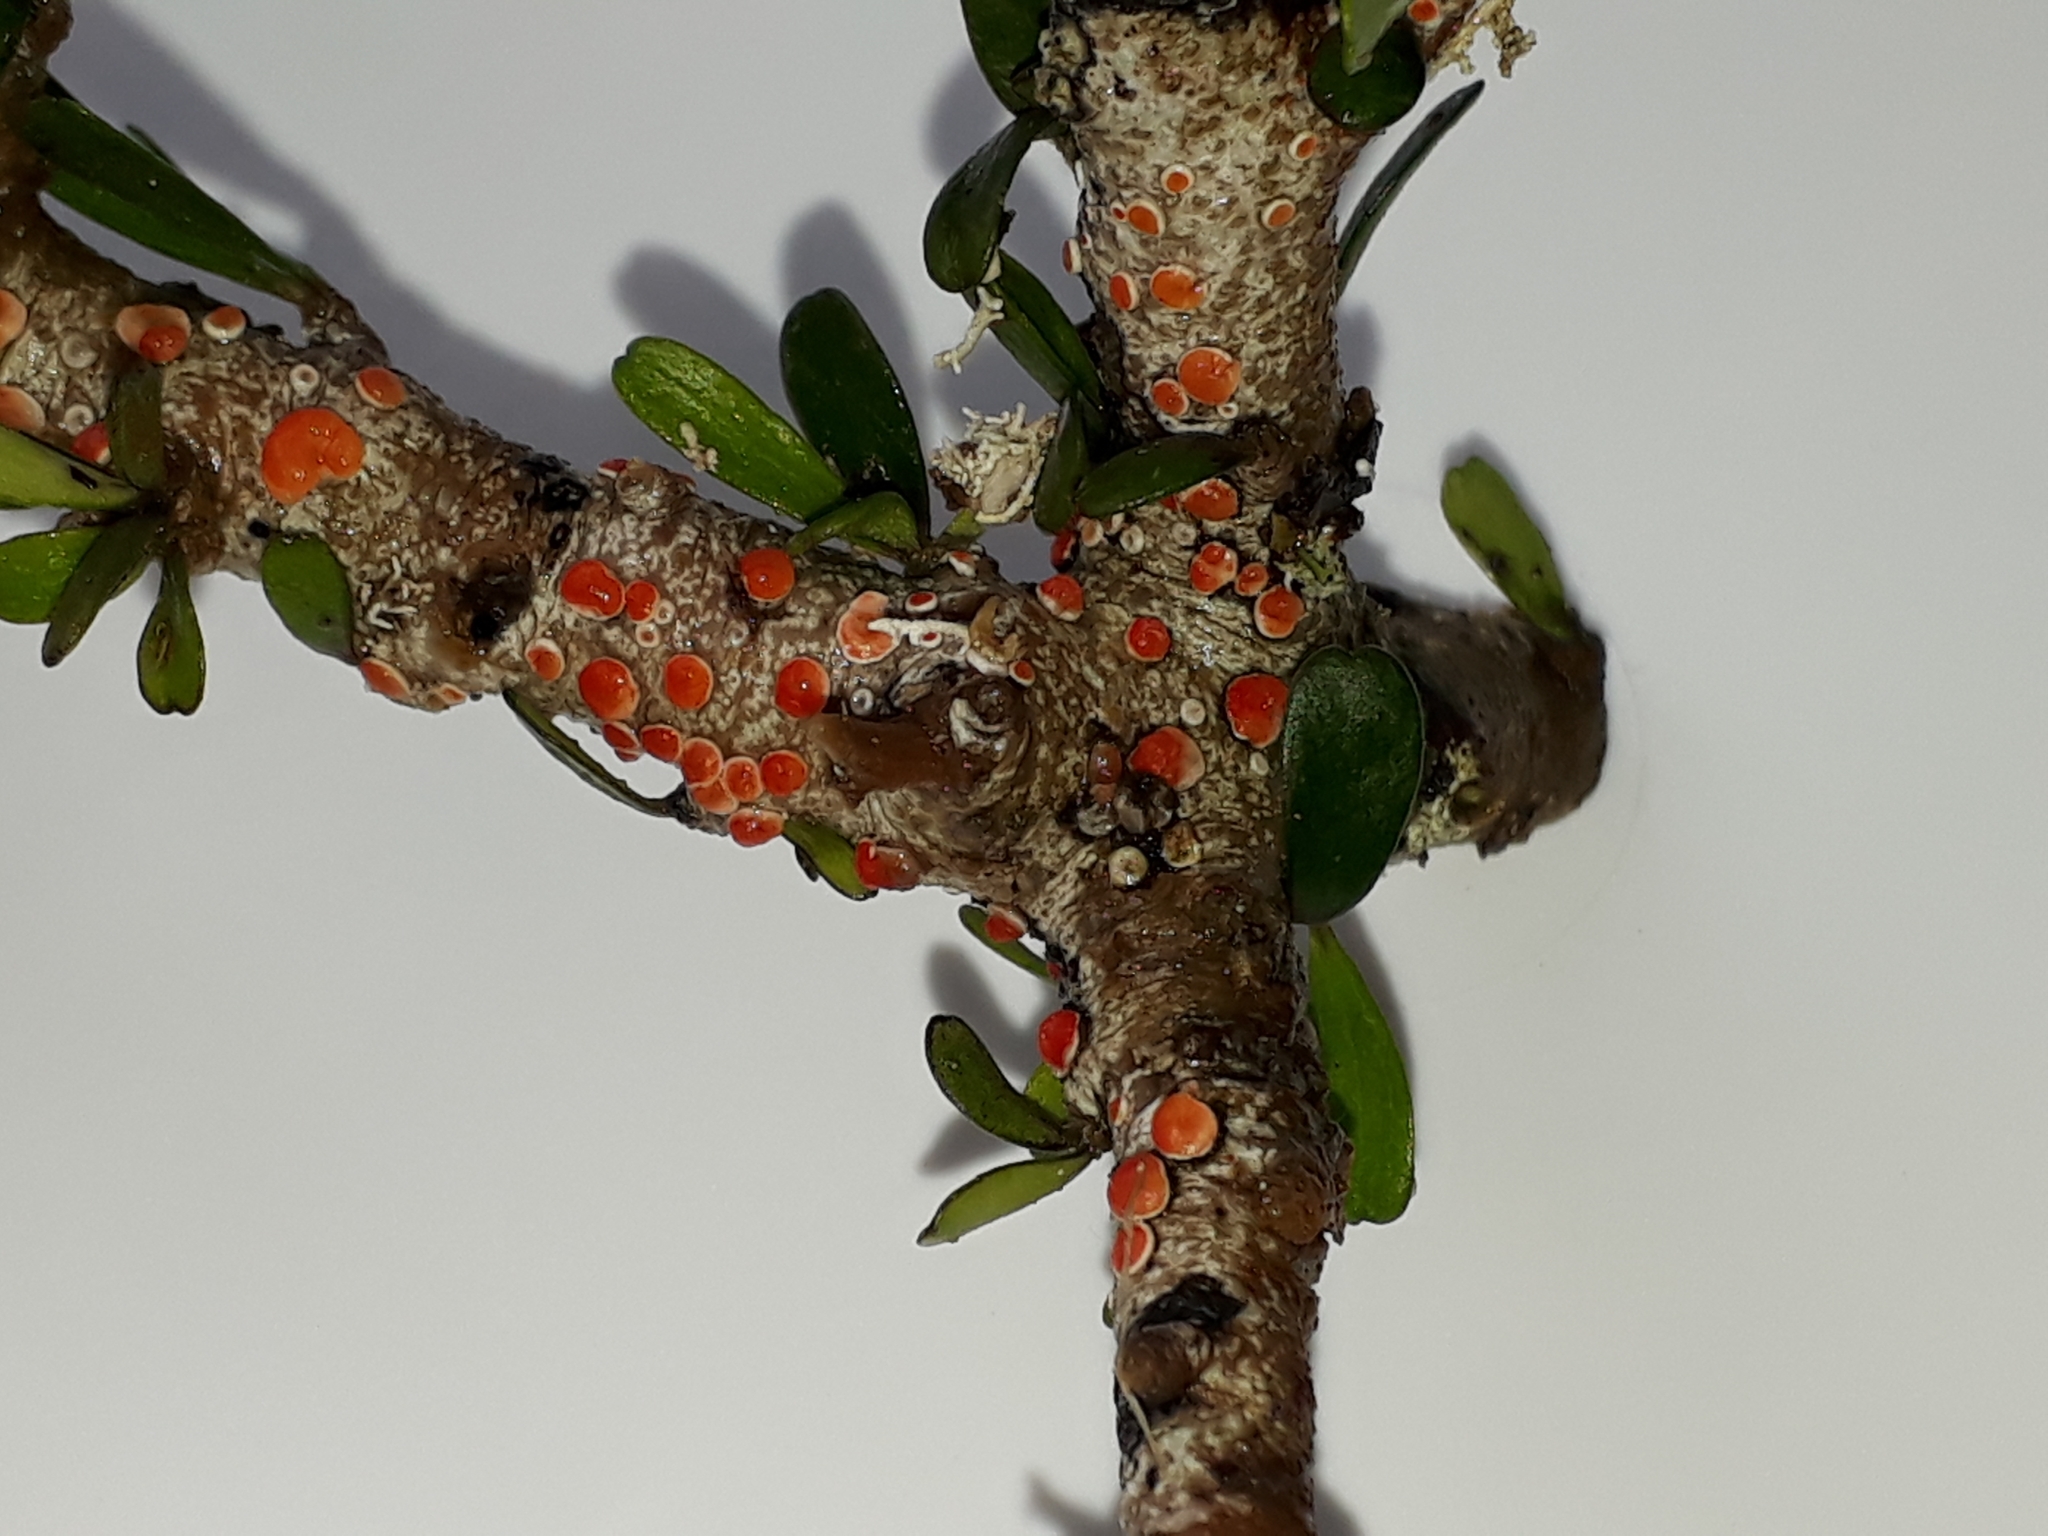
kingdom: Fungi
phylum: Ascomycota
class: Lecanoromycetes
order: Lecanorales
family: Haematommataceae
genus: Haematomma
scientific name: Haematomma
